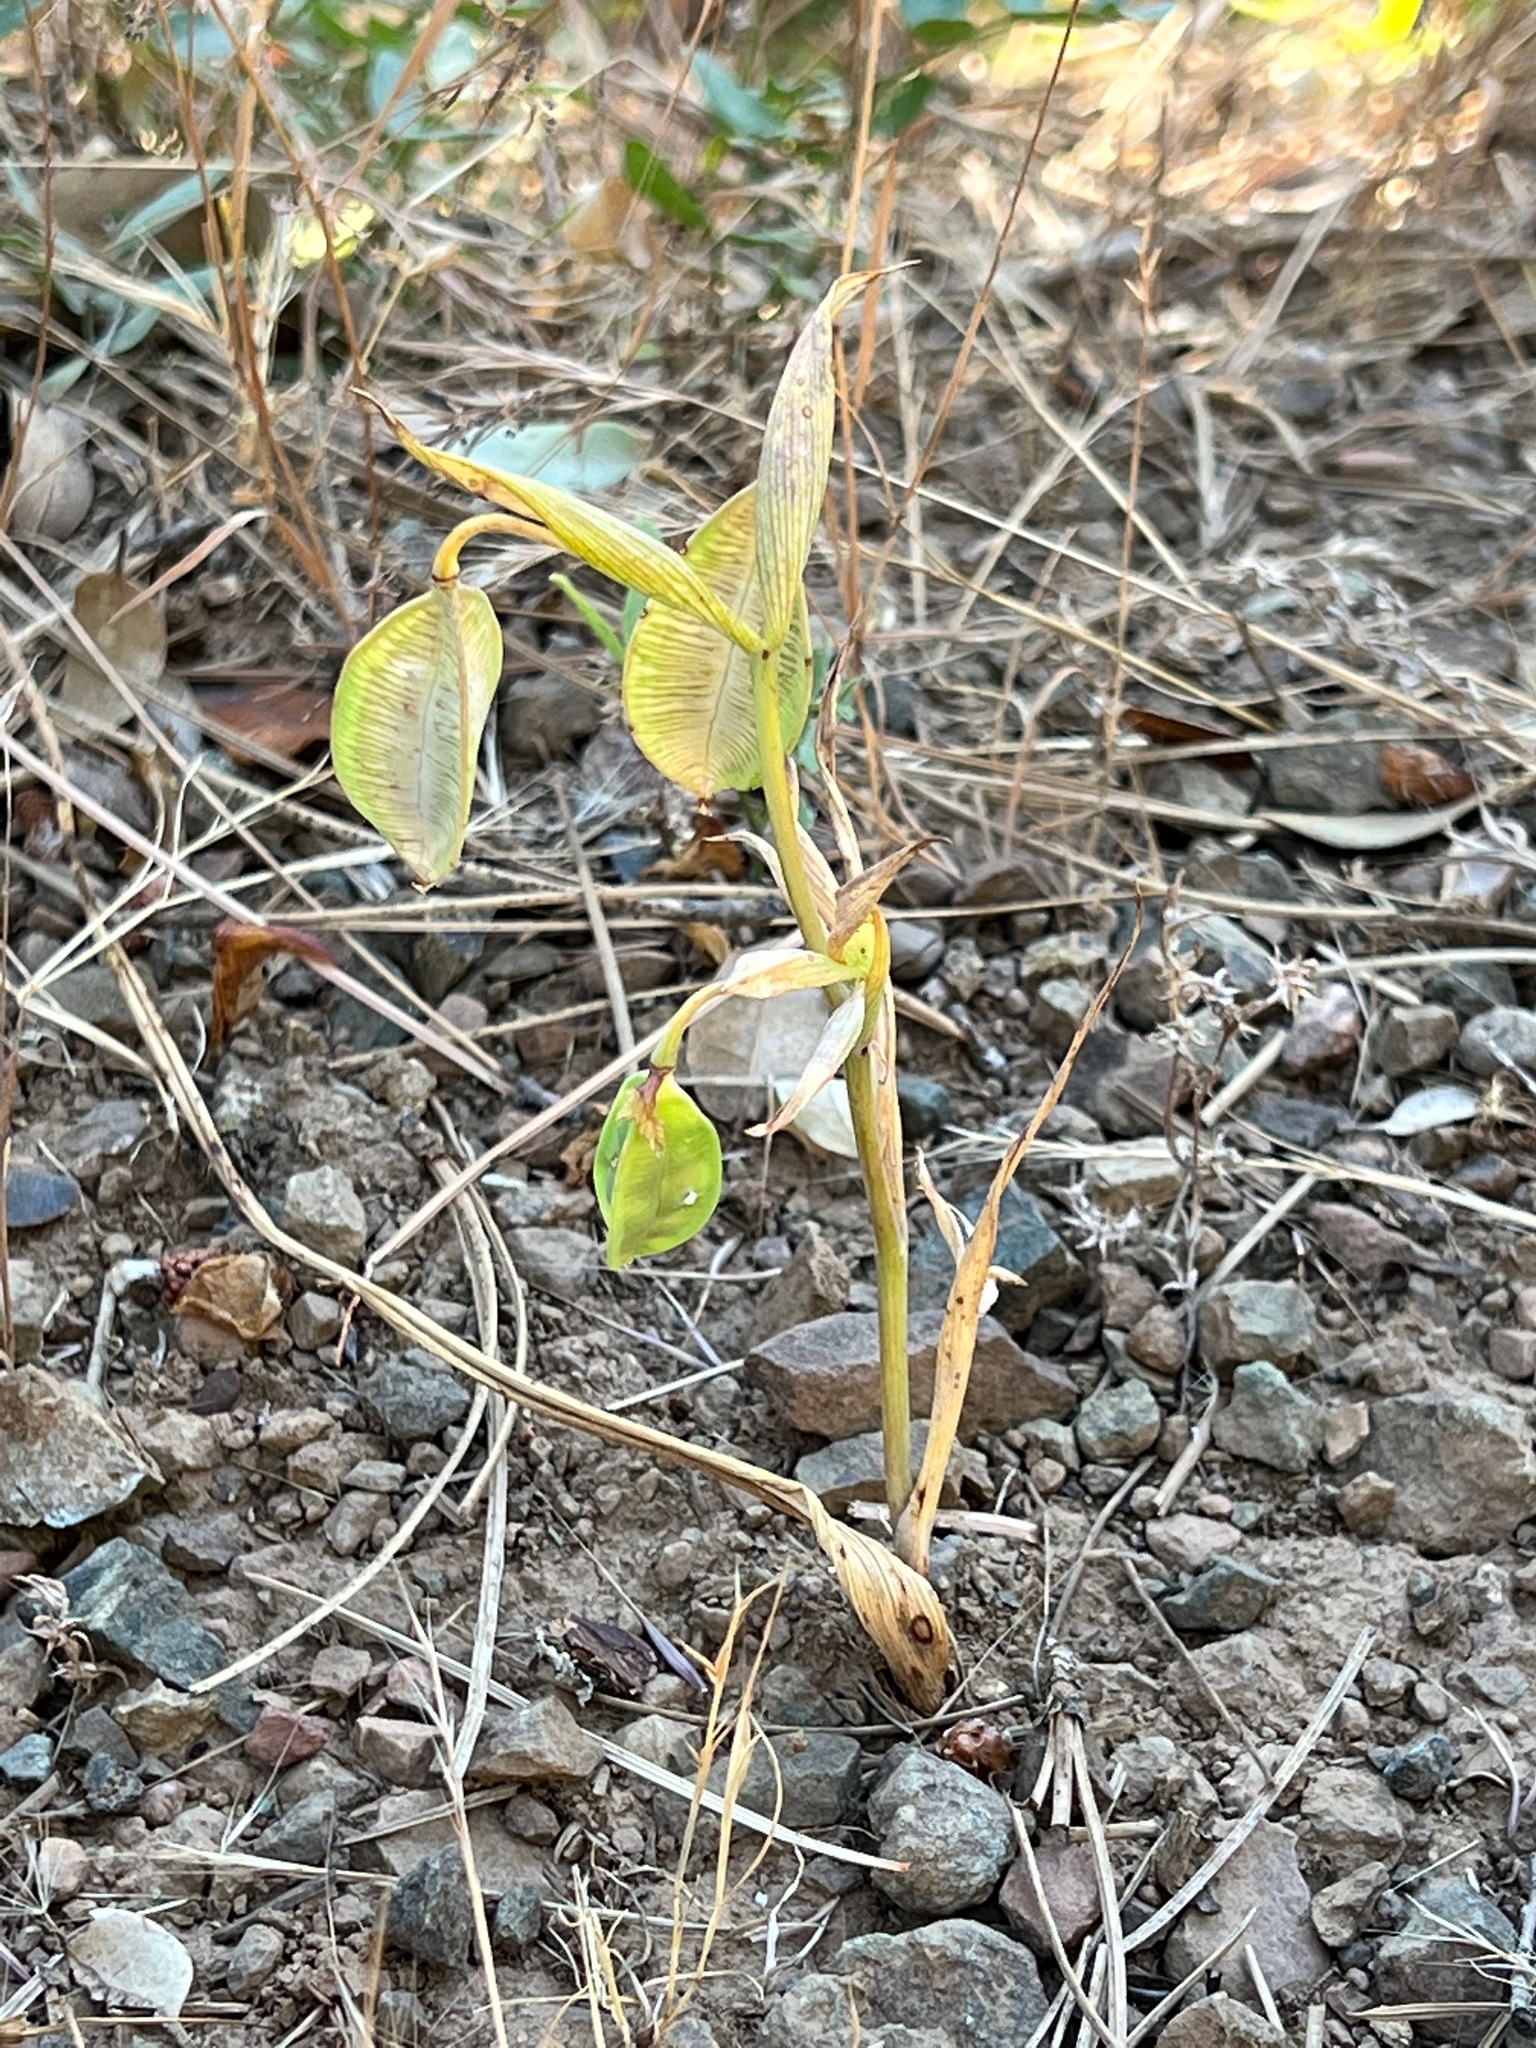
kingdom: Plantae
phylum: Tracheophyta
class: Liliopsida
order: Liliales
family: Liliaceae
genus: Calochortus
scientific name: Calochortus pulchellus
